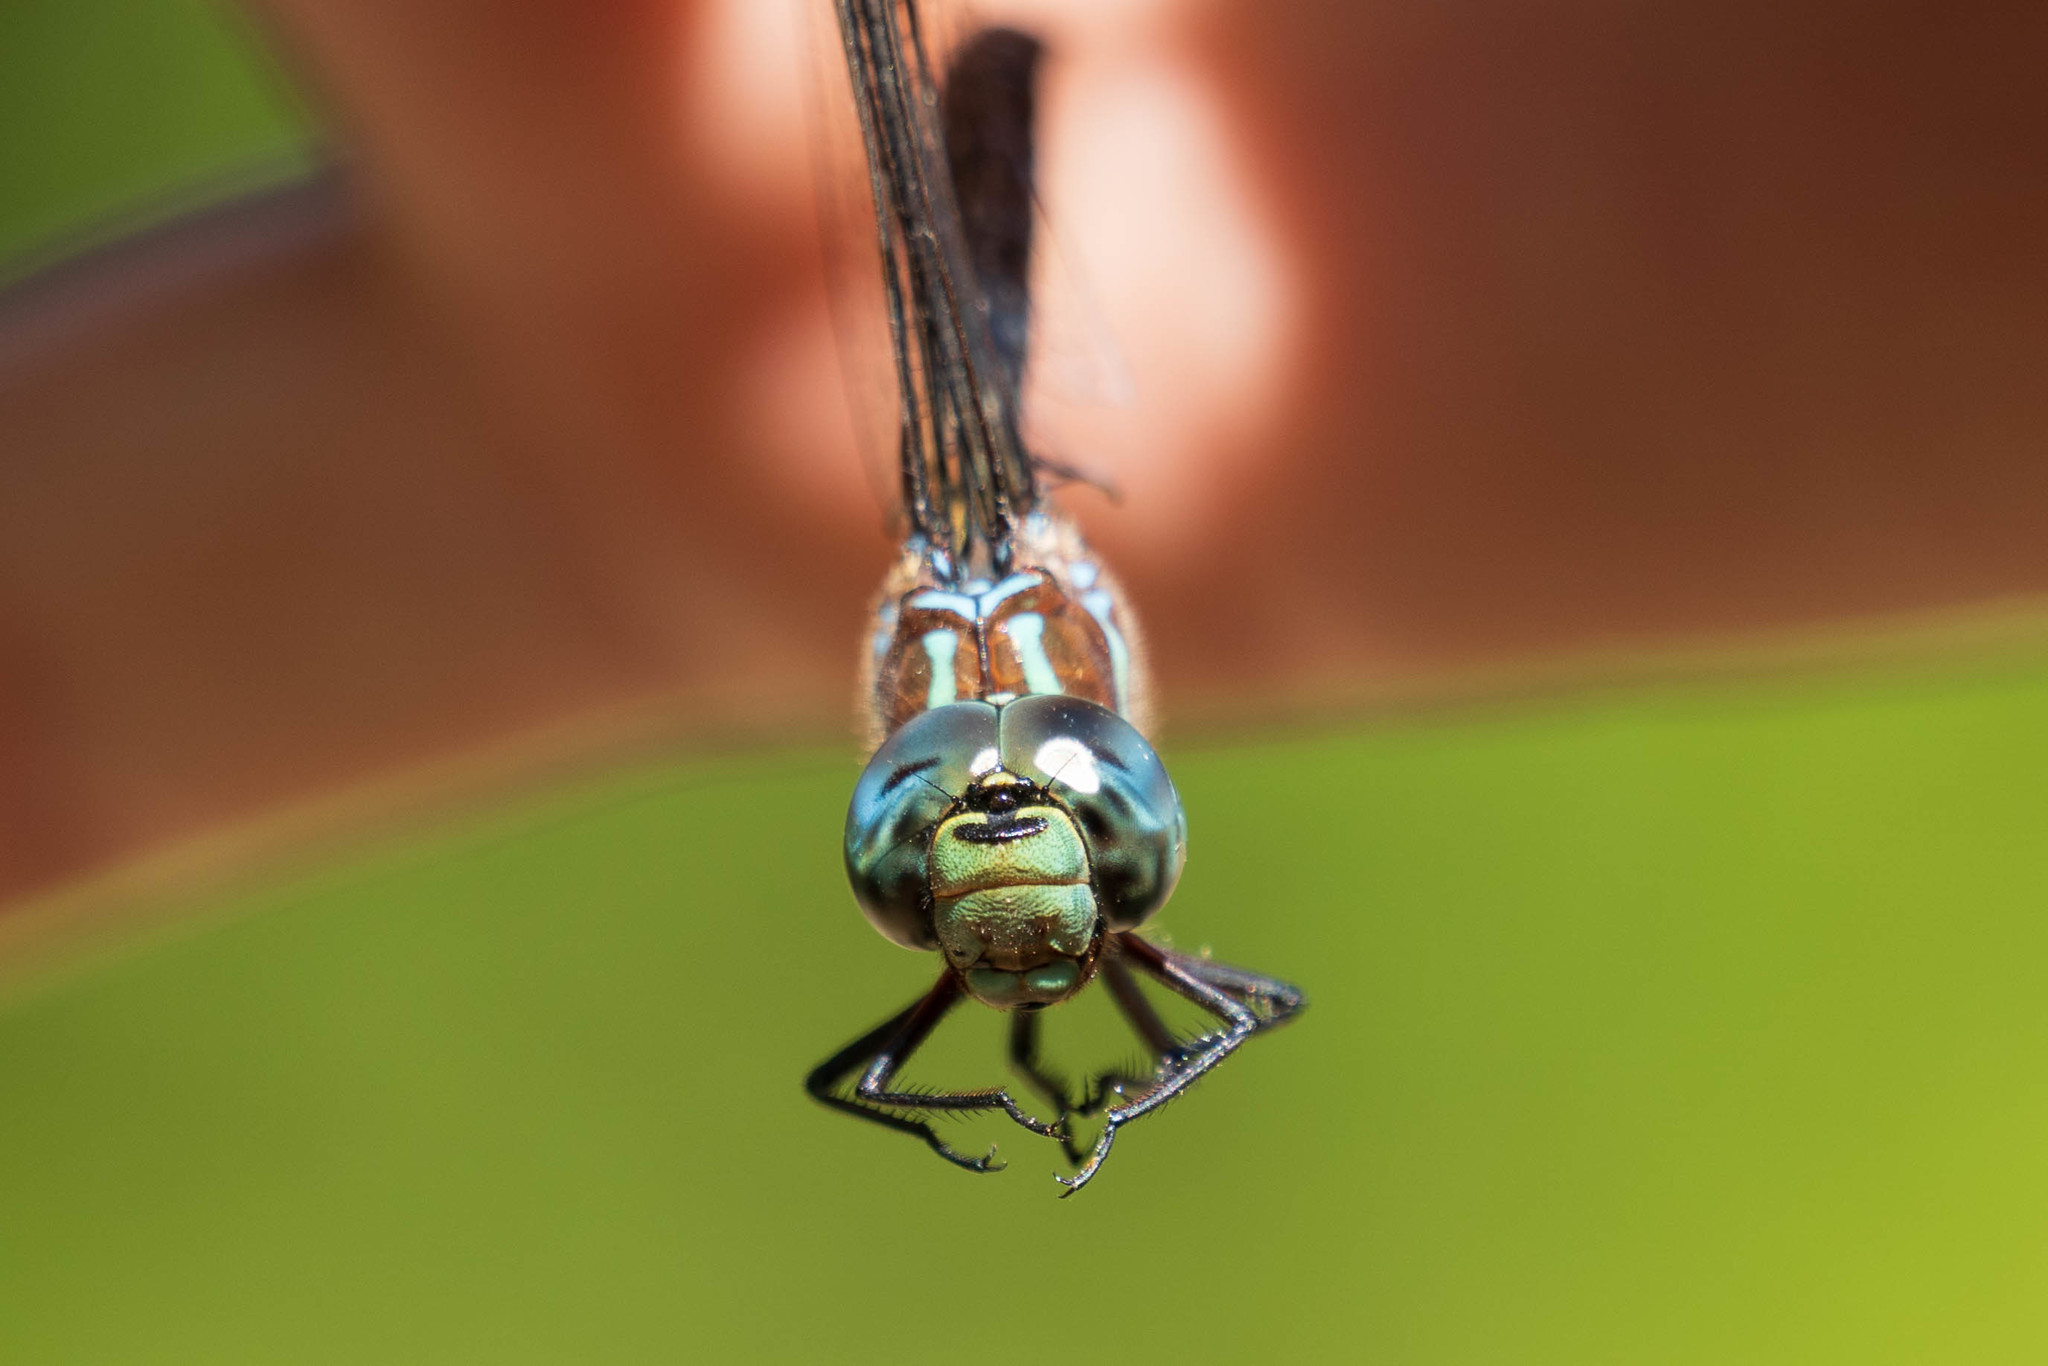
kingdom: Animalia
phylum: Arthropoda
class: Insecta
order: Odonata
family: Aeshnidae
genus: Aeshna
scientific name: Aeshna tuberculifera
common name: Aeschne à tubercules
